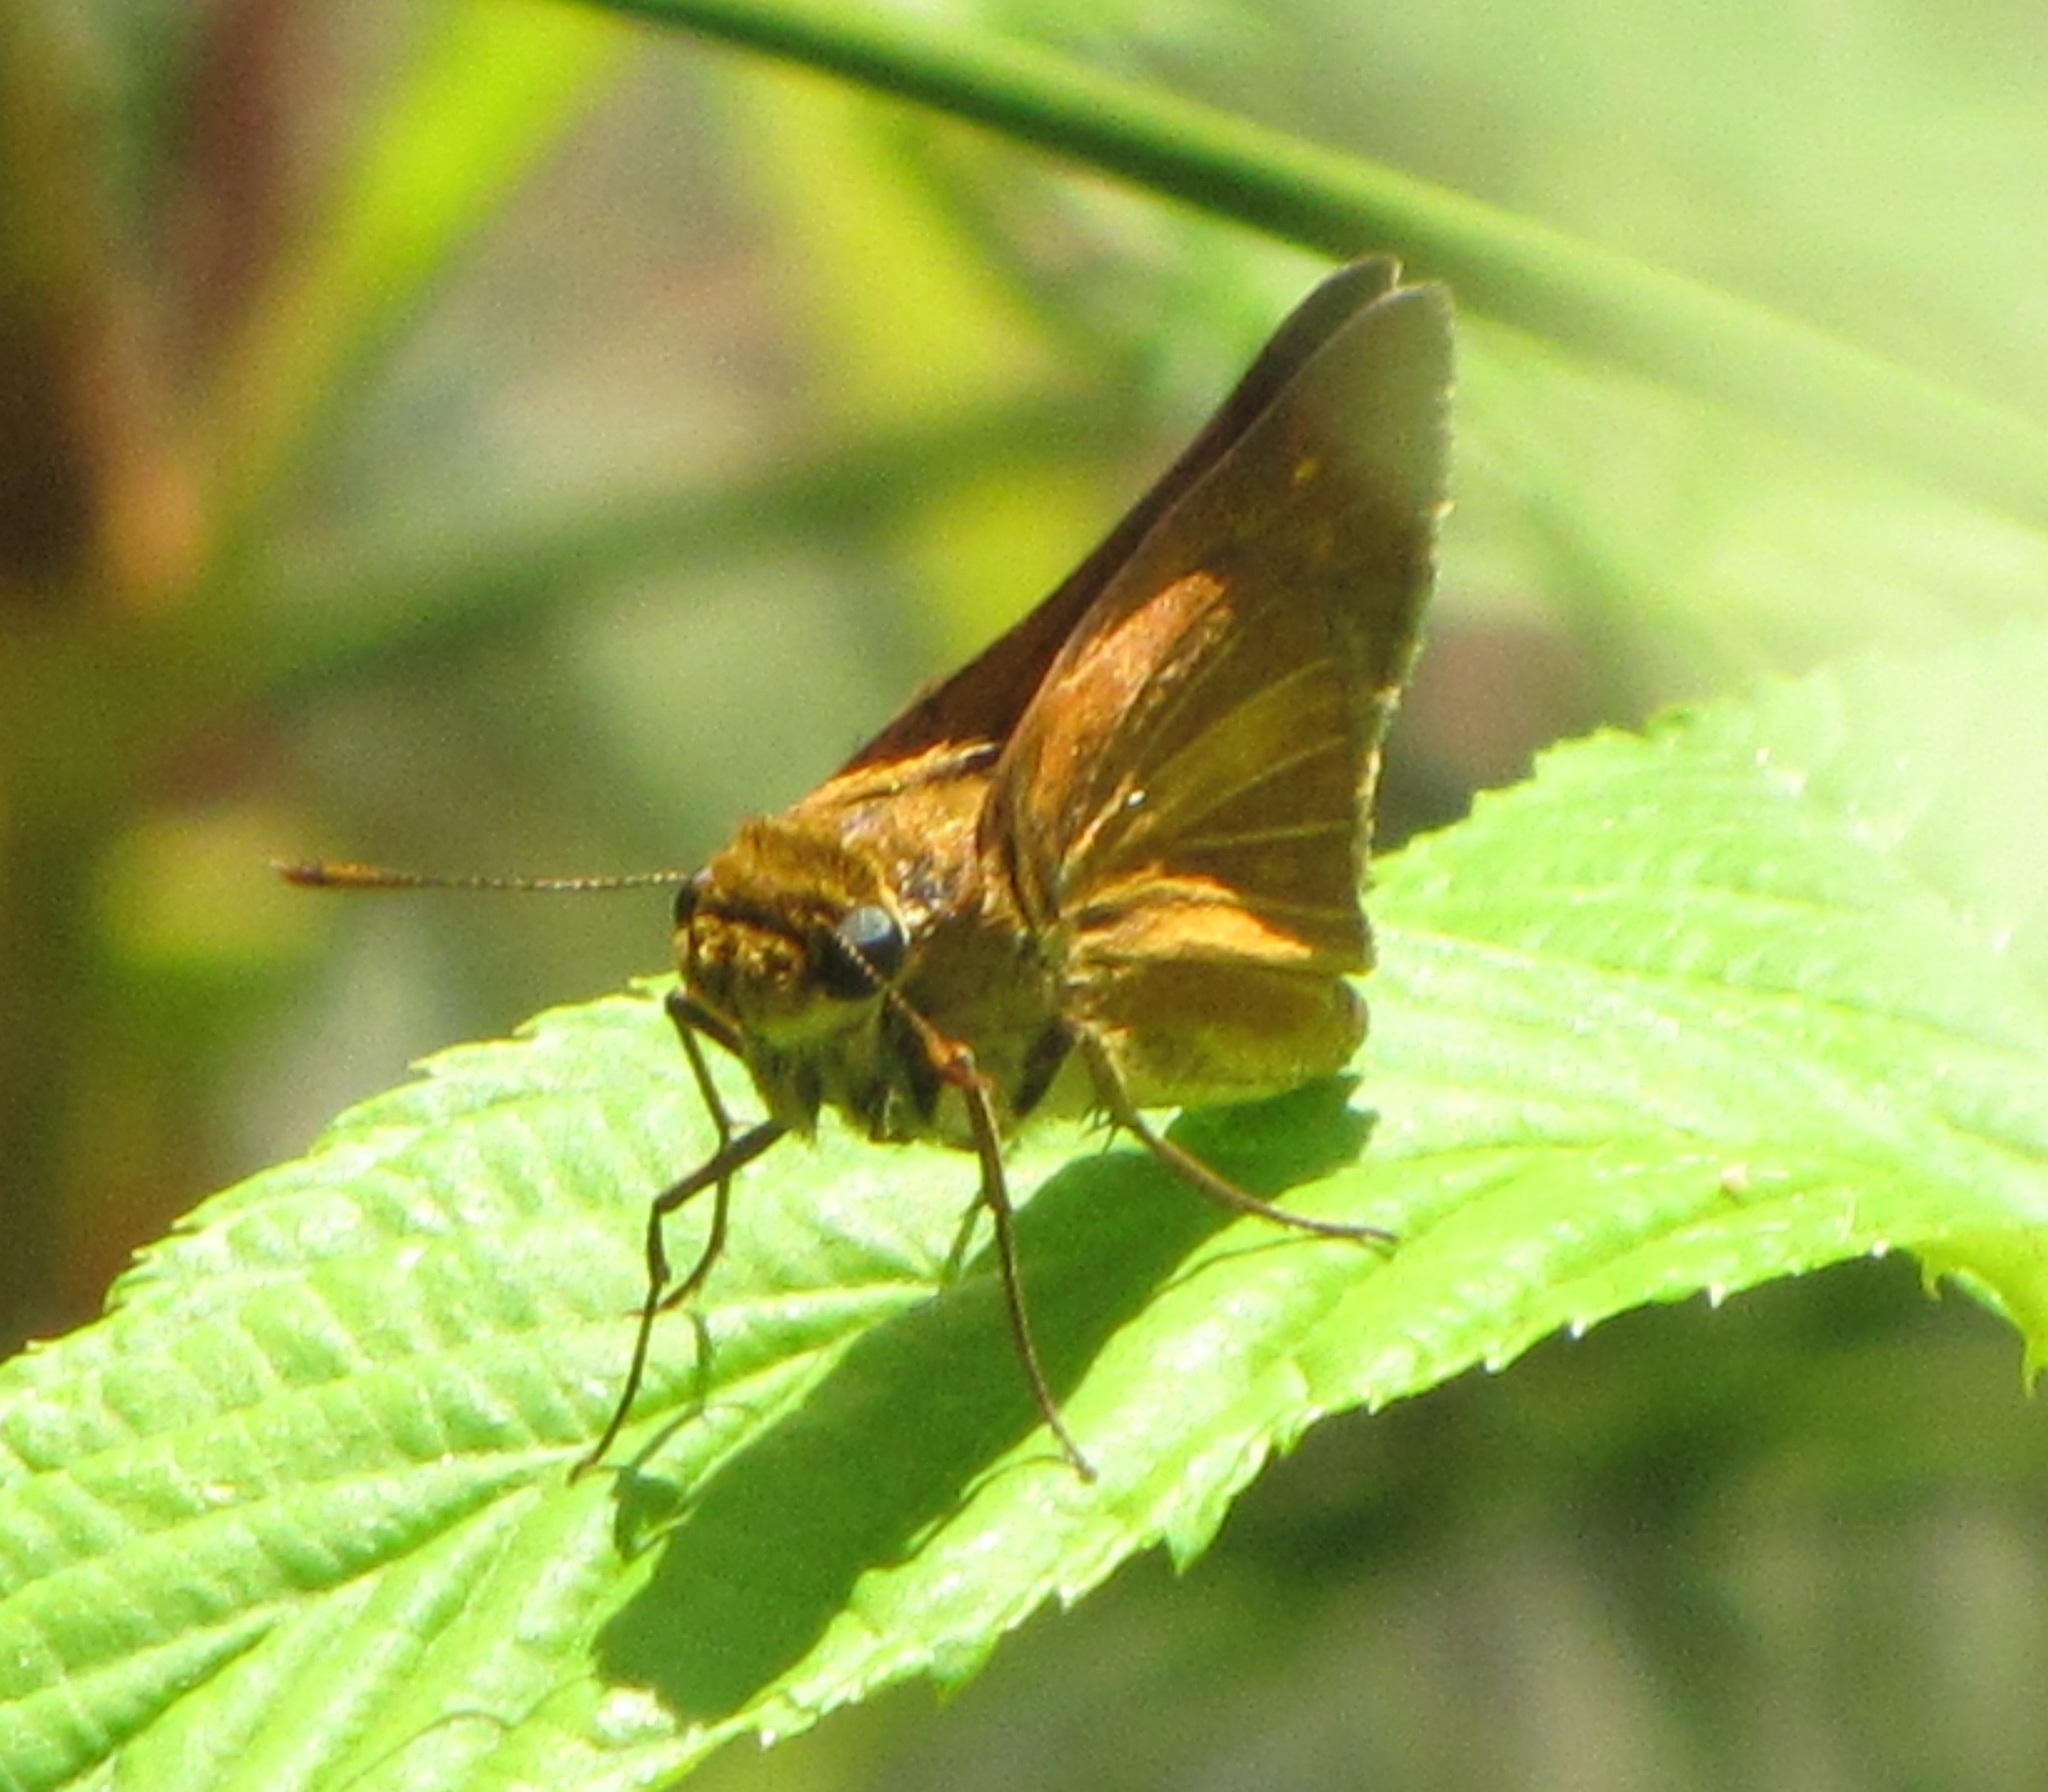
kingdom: Animalia
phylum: Arthropoda
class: Insecta
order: Lepidoptera
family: Hesperiidae
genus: Euphyes
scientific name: Euphyes dion
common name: Dion skipper
